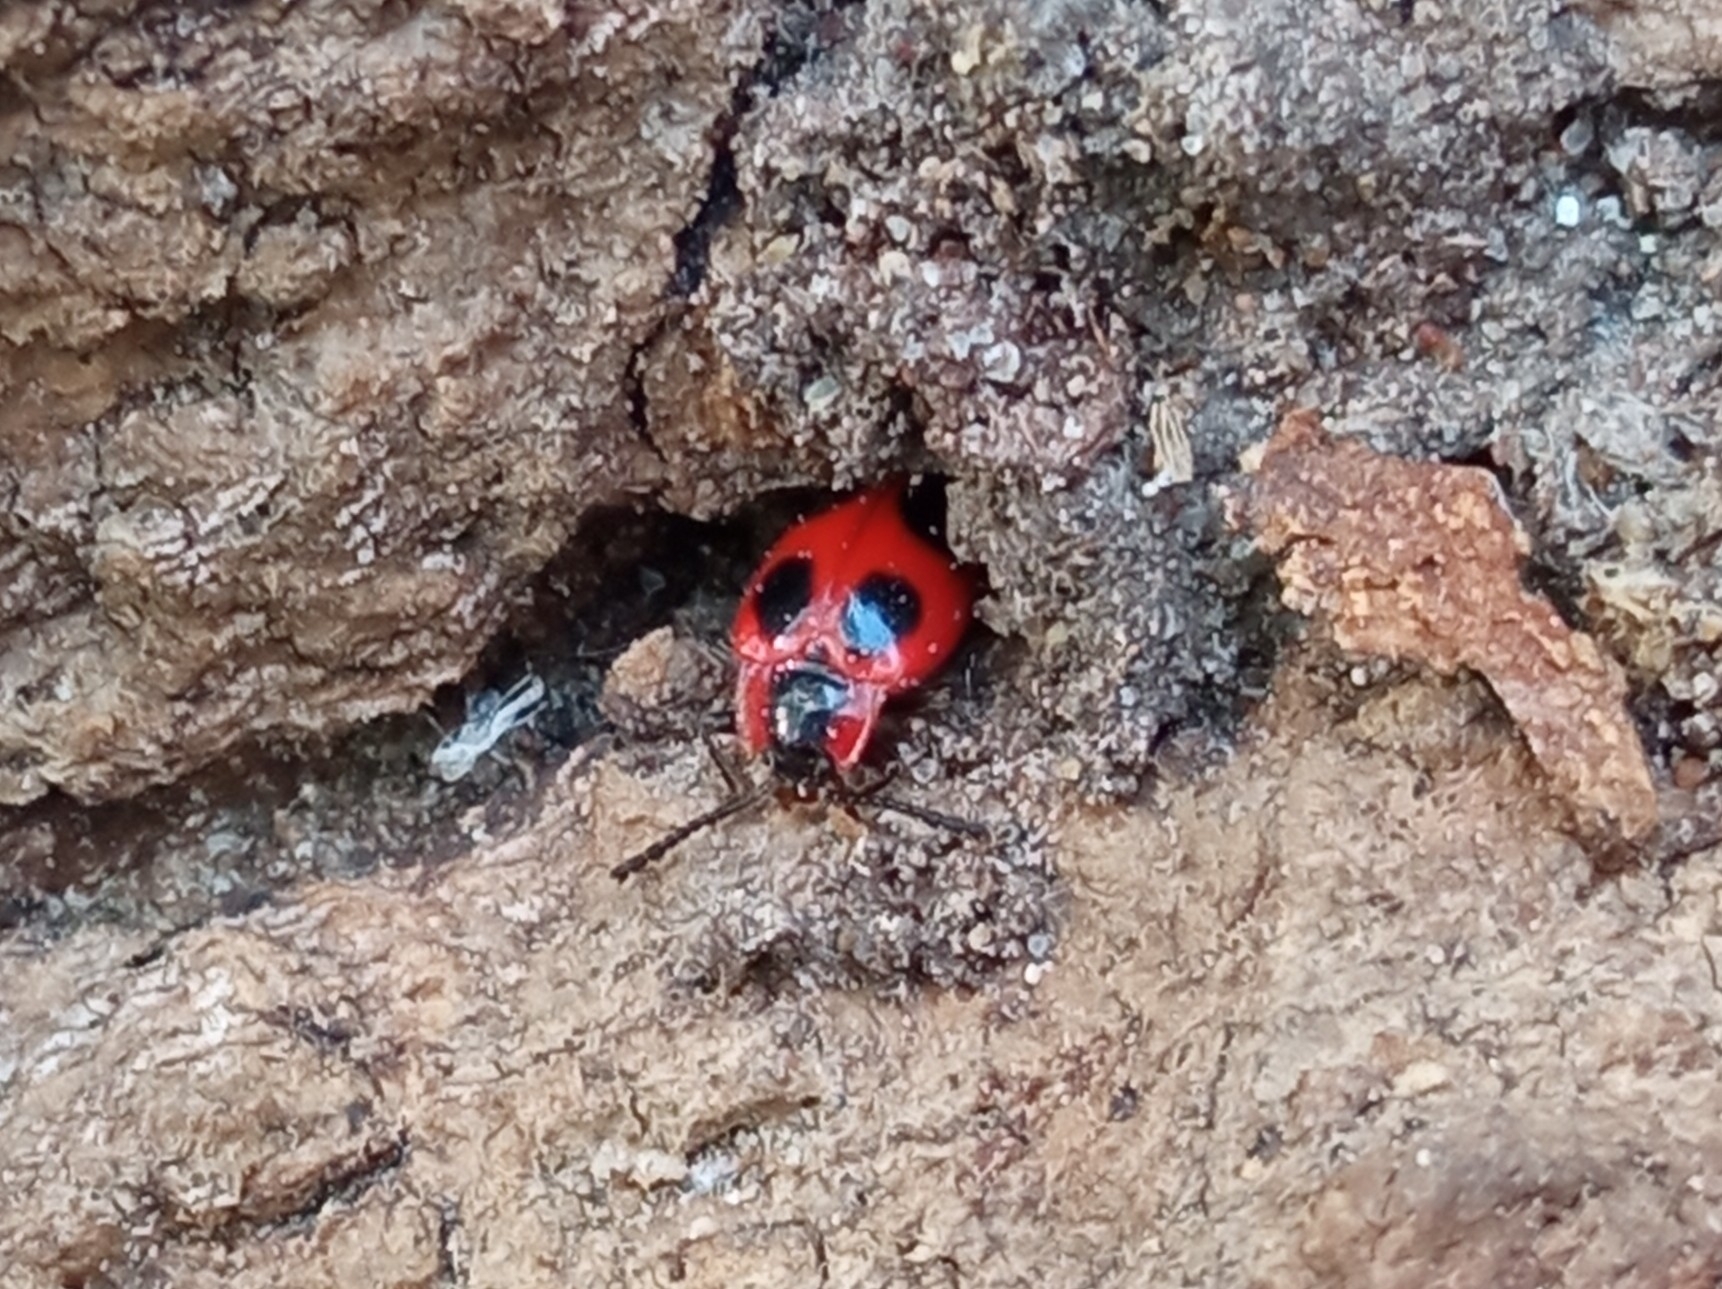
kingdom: Animalia
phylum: Arthropoda
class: Insecta
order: Coleoptera
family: Endomychidae
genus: Endomychus
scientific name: Endomychus coccineus
